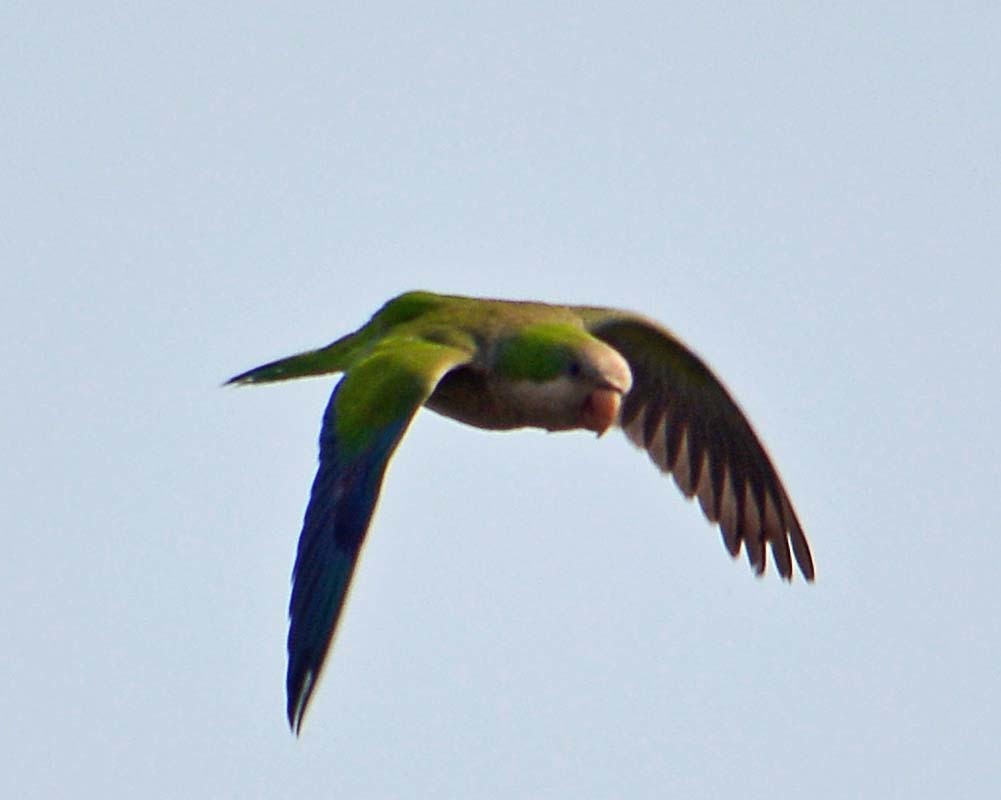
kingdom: Animalia
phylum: Chordata
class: Aves
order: Psittaciformes
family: Psittacidae
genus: Myiopsitta
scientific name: Myiopsitta monachus
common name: Monk parakeet
